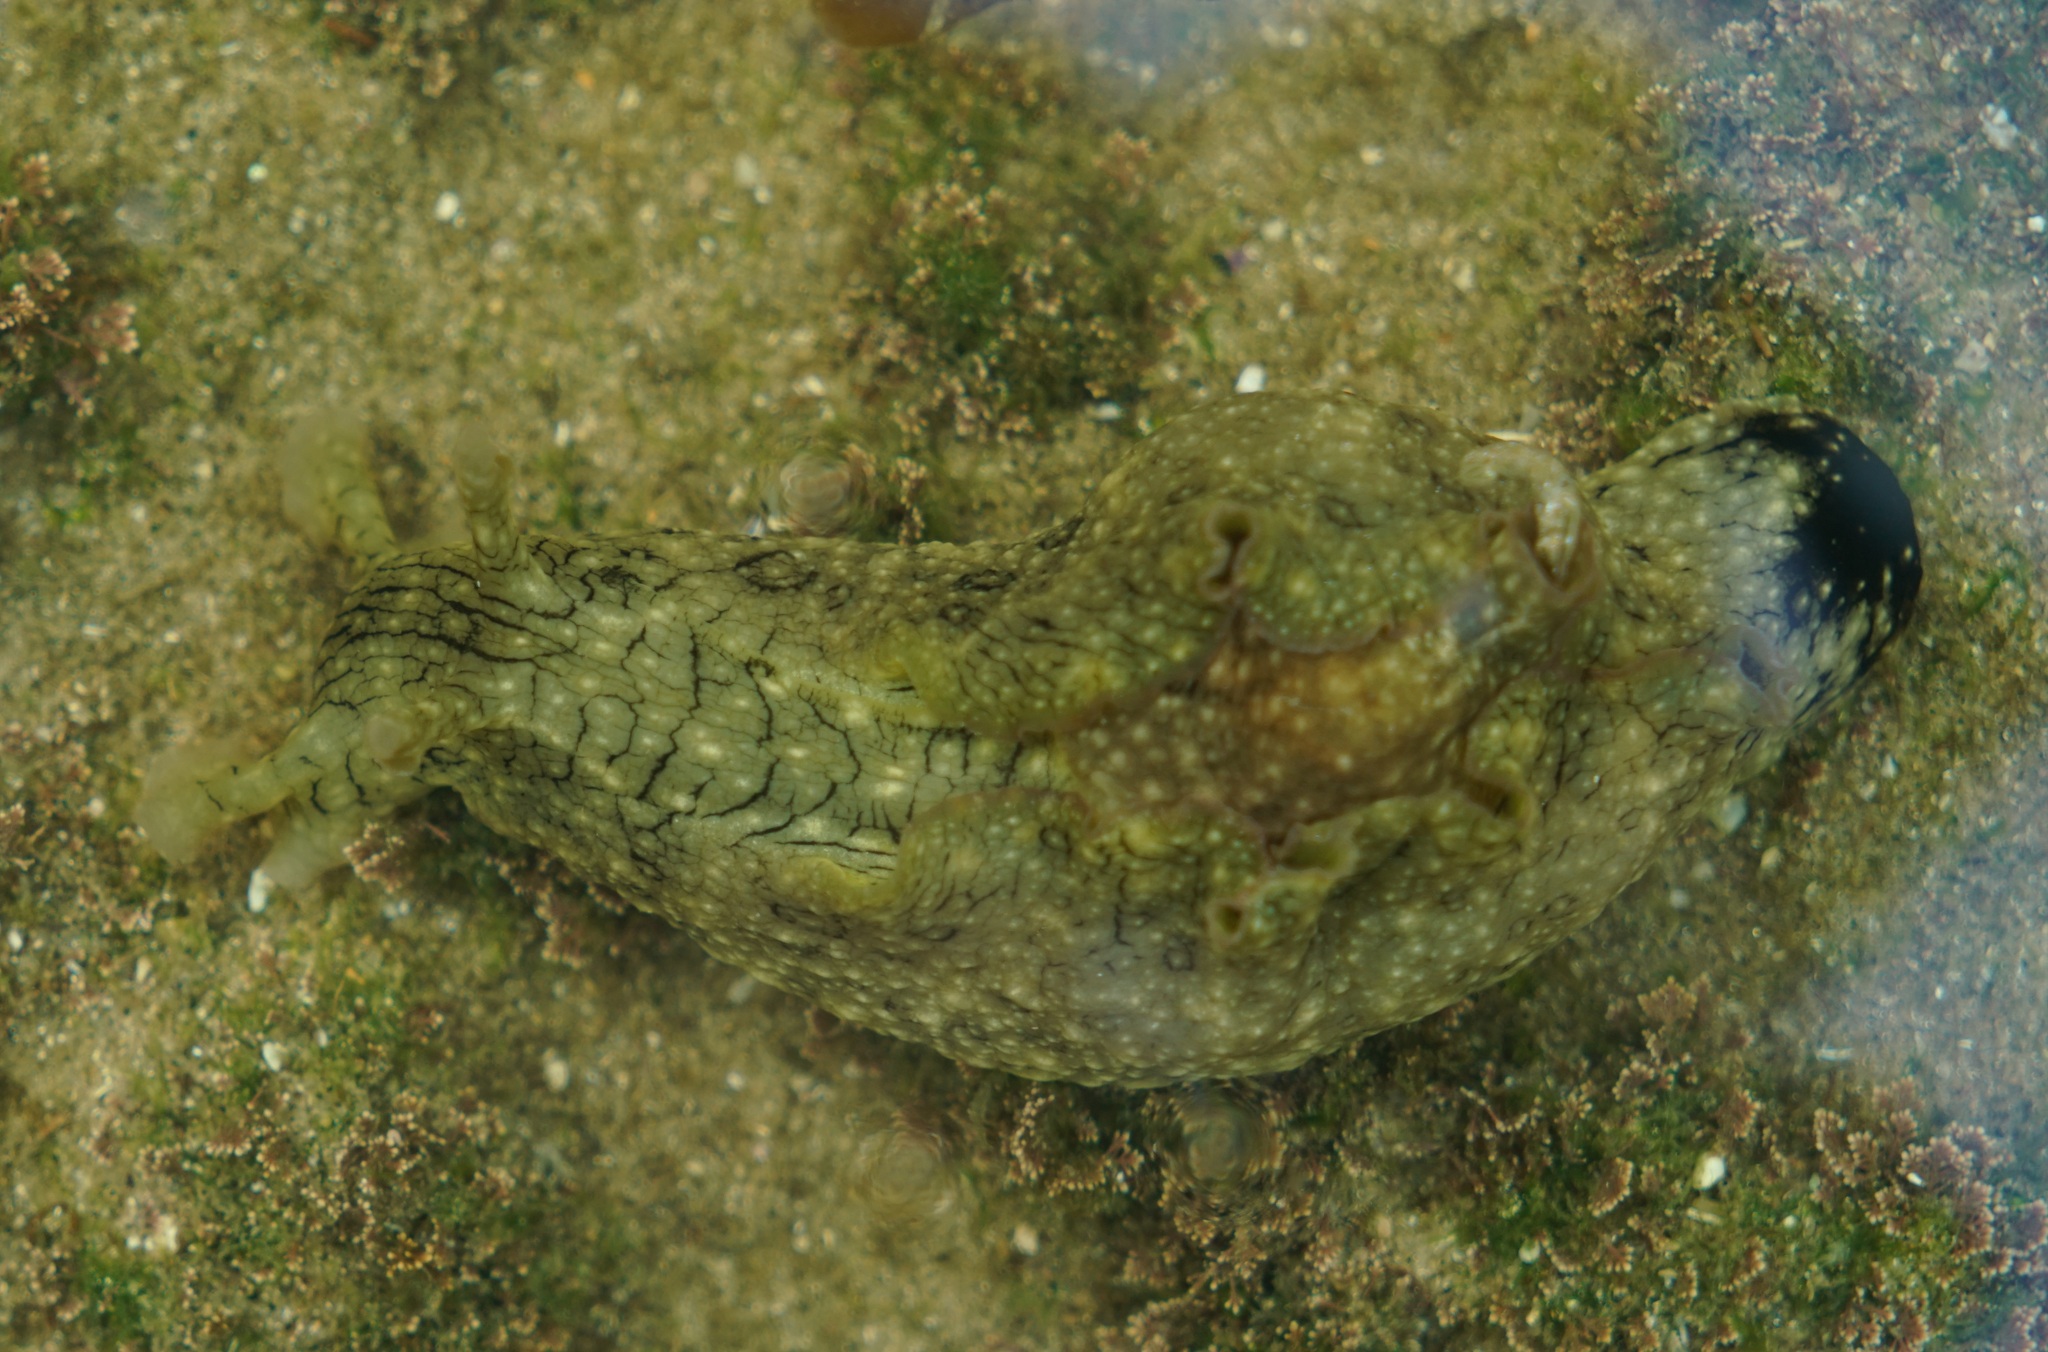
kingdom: Animalia
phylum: Mollusca
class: Gastropoda
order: Aplysiida
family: Aplysiidae
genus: Aplysia
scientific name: Aplysia argus
